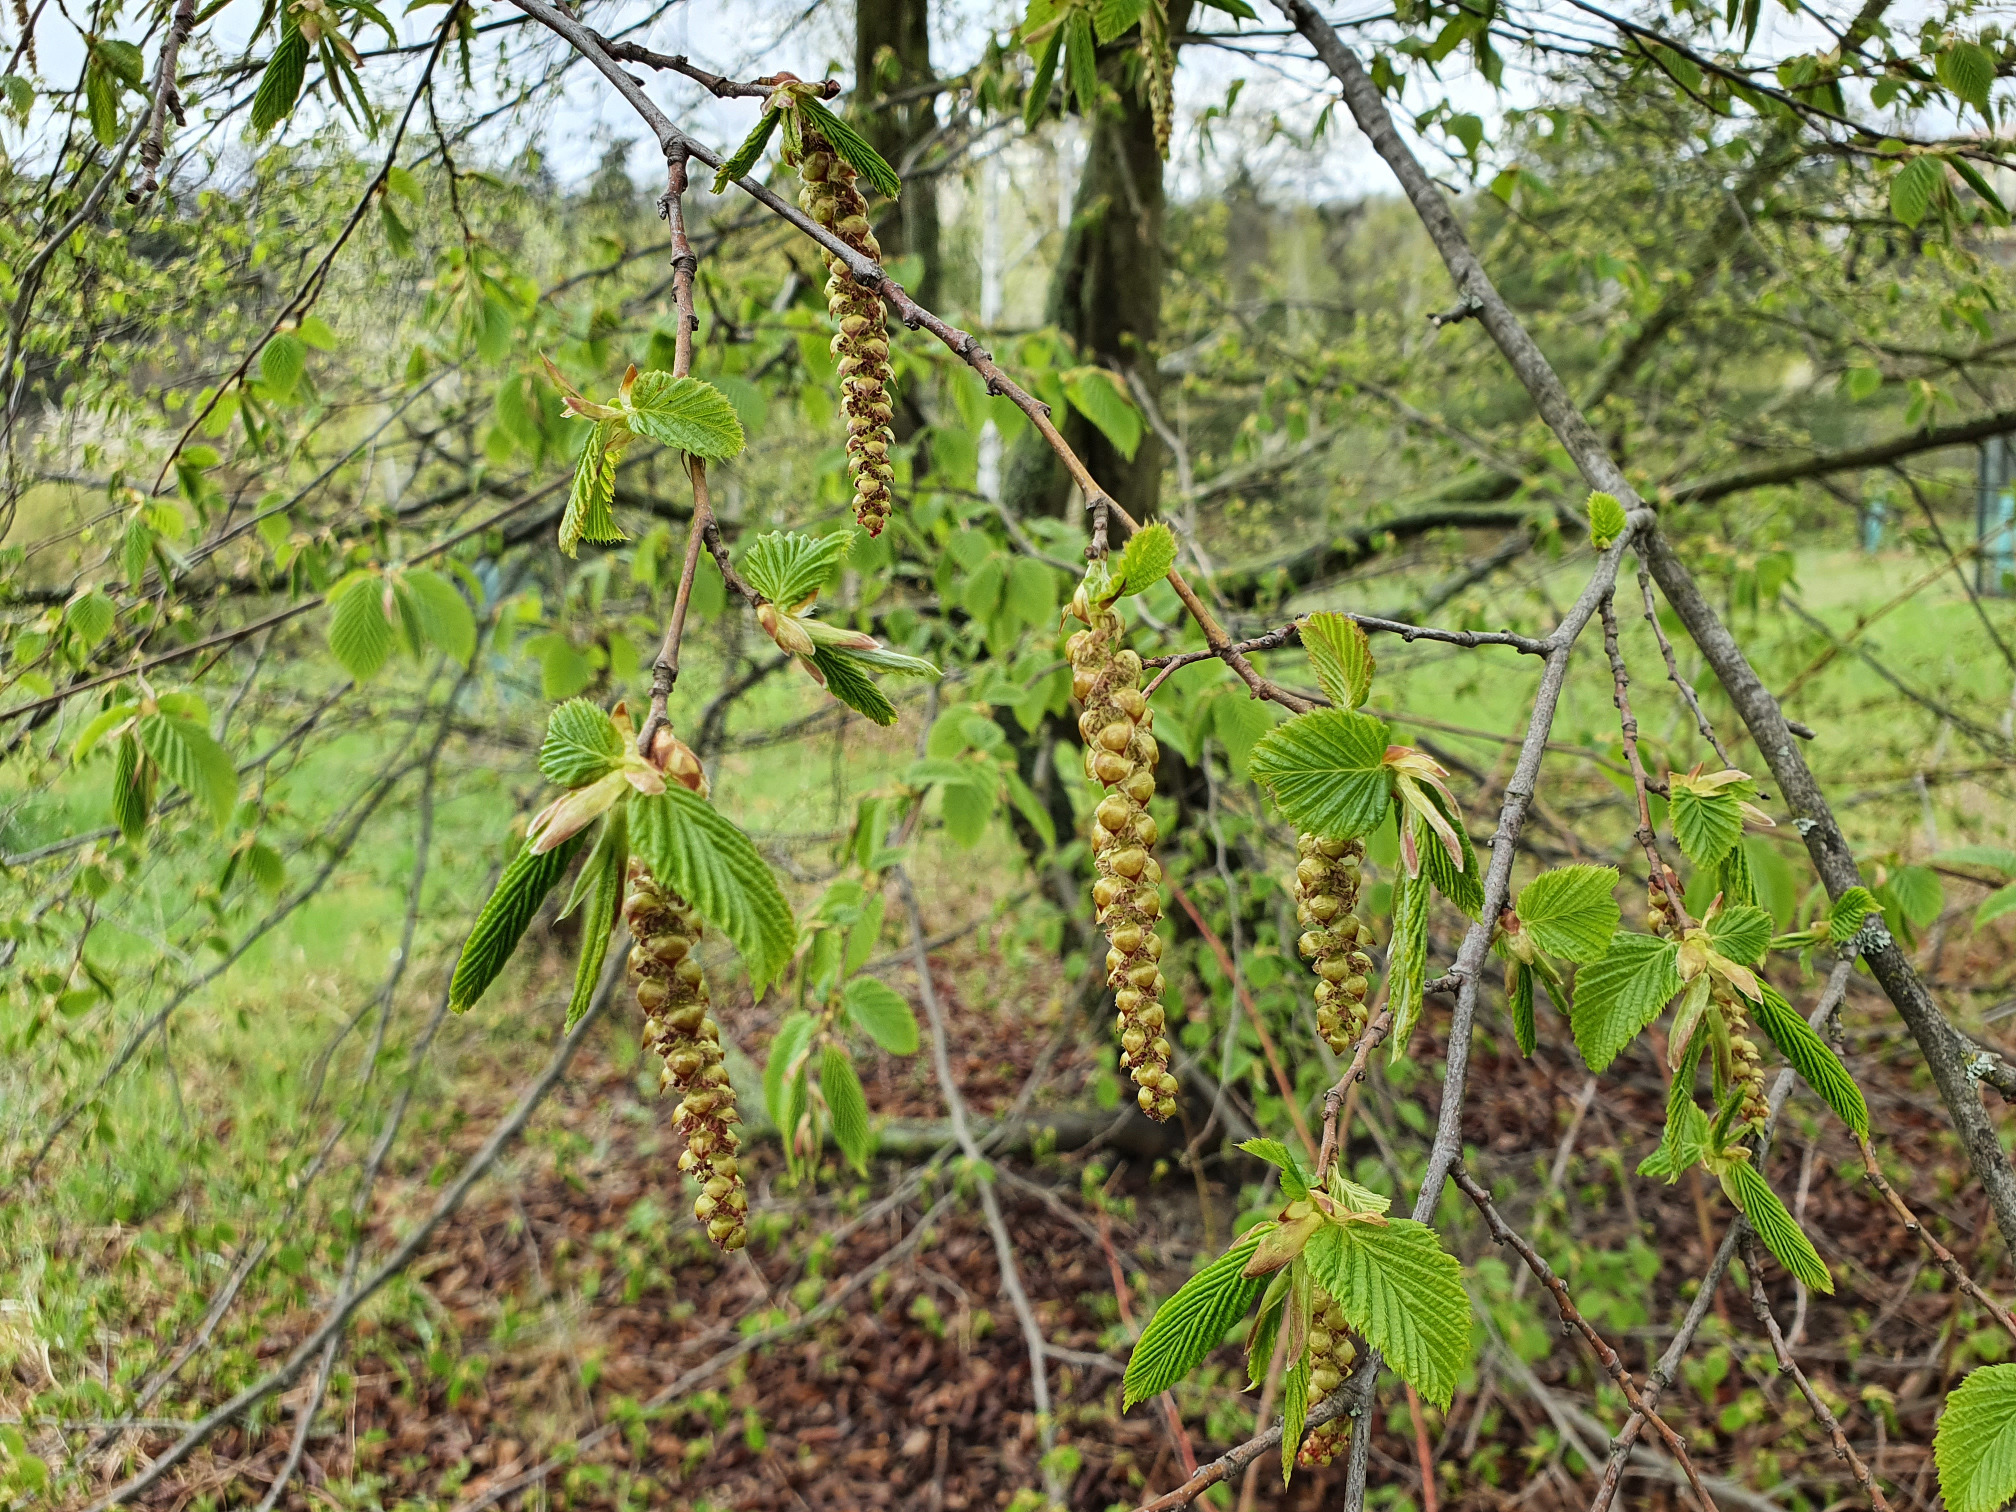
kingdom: Plantae
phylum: Tracheophyta
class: Magnoliopsida
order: Fagales
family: Betulaceae
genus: Carpinus
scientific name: Carpinus betulus
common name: Hornbeam
